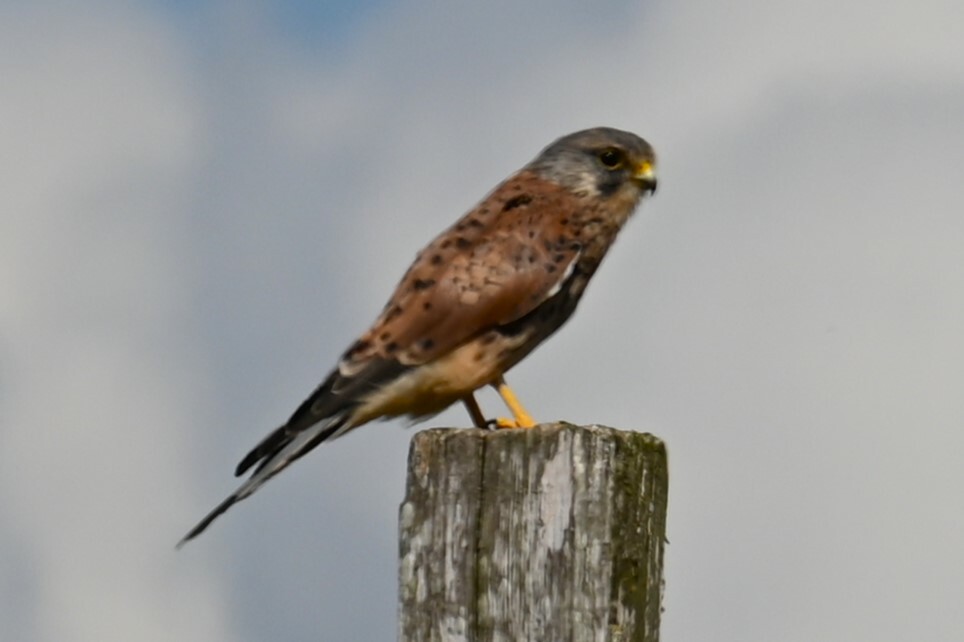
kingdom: Animalia
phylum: Chordata
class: Aves
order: Falconiformes
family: Falconidae
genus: Falco
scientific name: Falco tinnunculus
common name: Common kestrel
